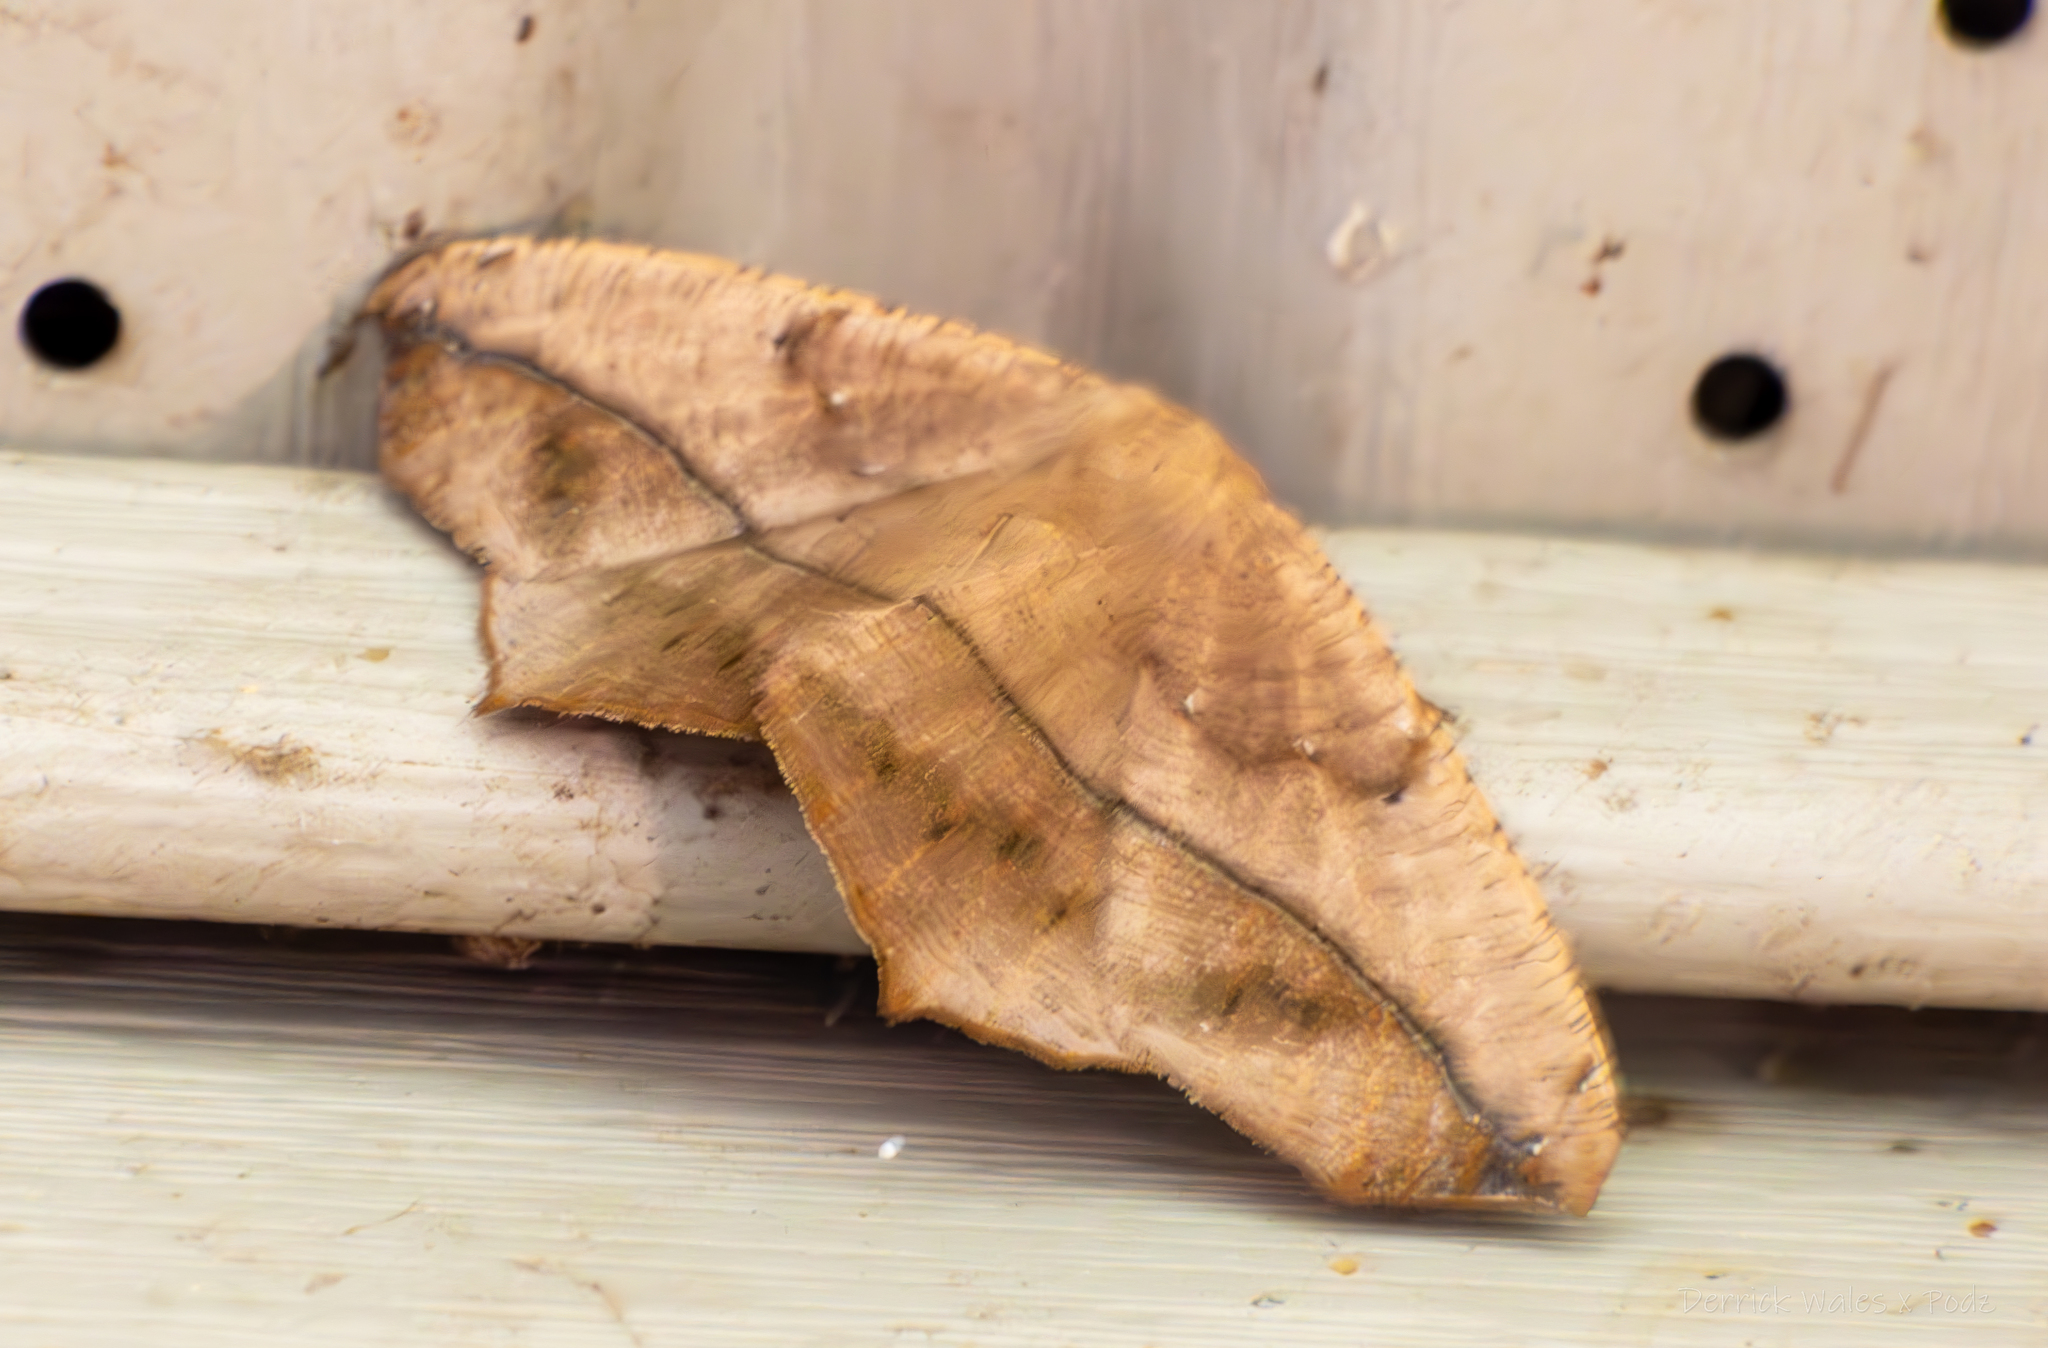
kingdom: Animalia
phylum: Arthropoda
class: Insecta
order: Lepidoptera
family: Geometridae
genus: Prochoerodes
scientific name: Prochoerodes lineola
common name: Large maple spanworm
